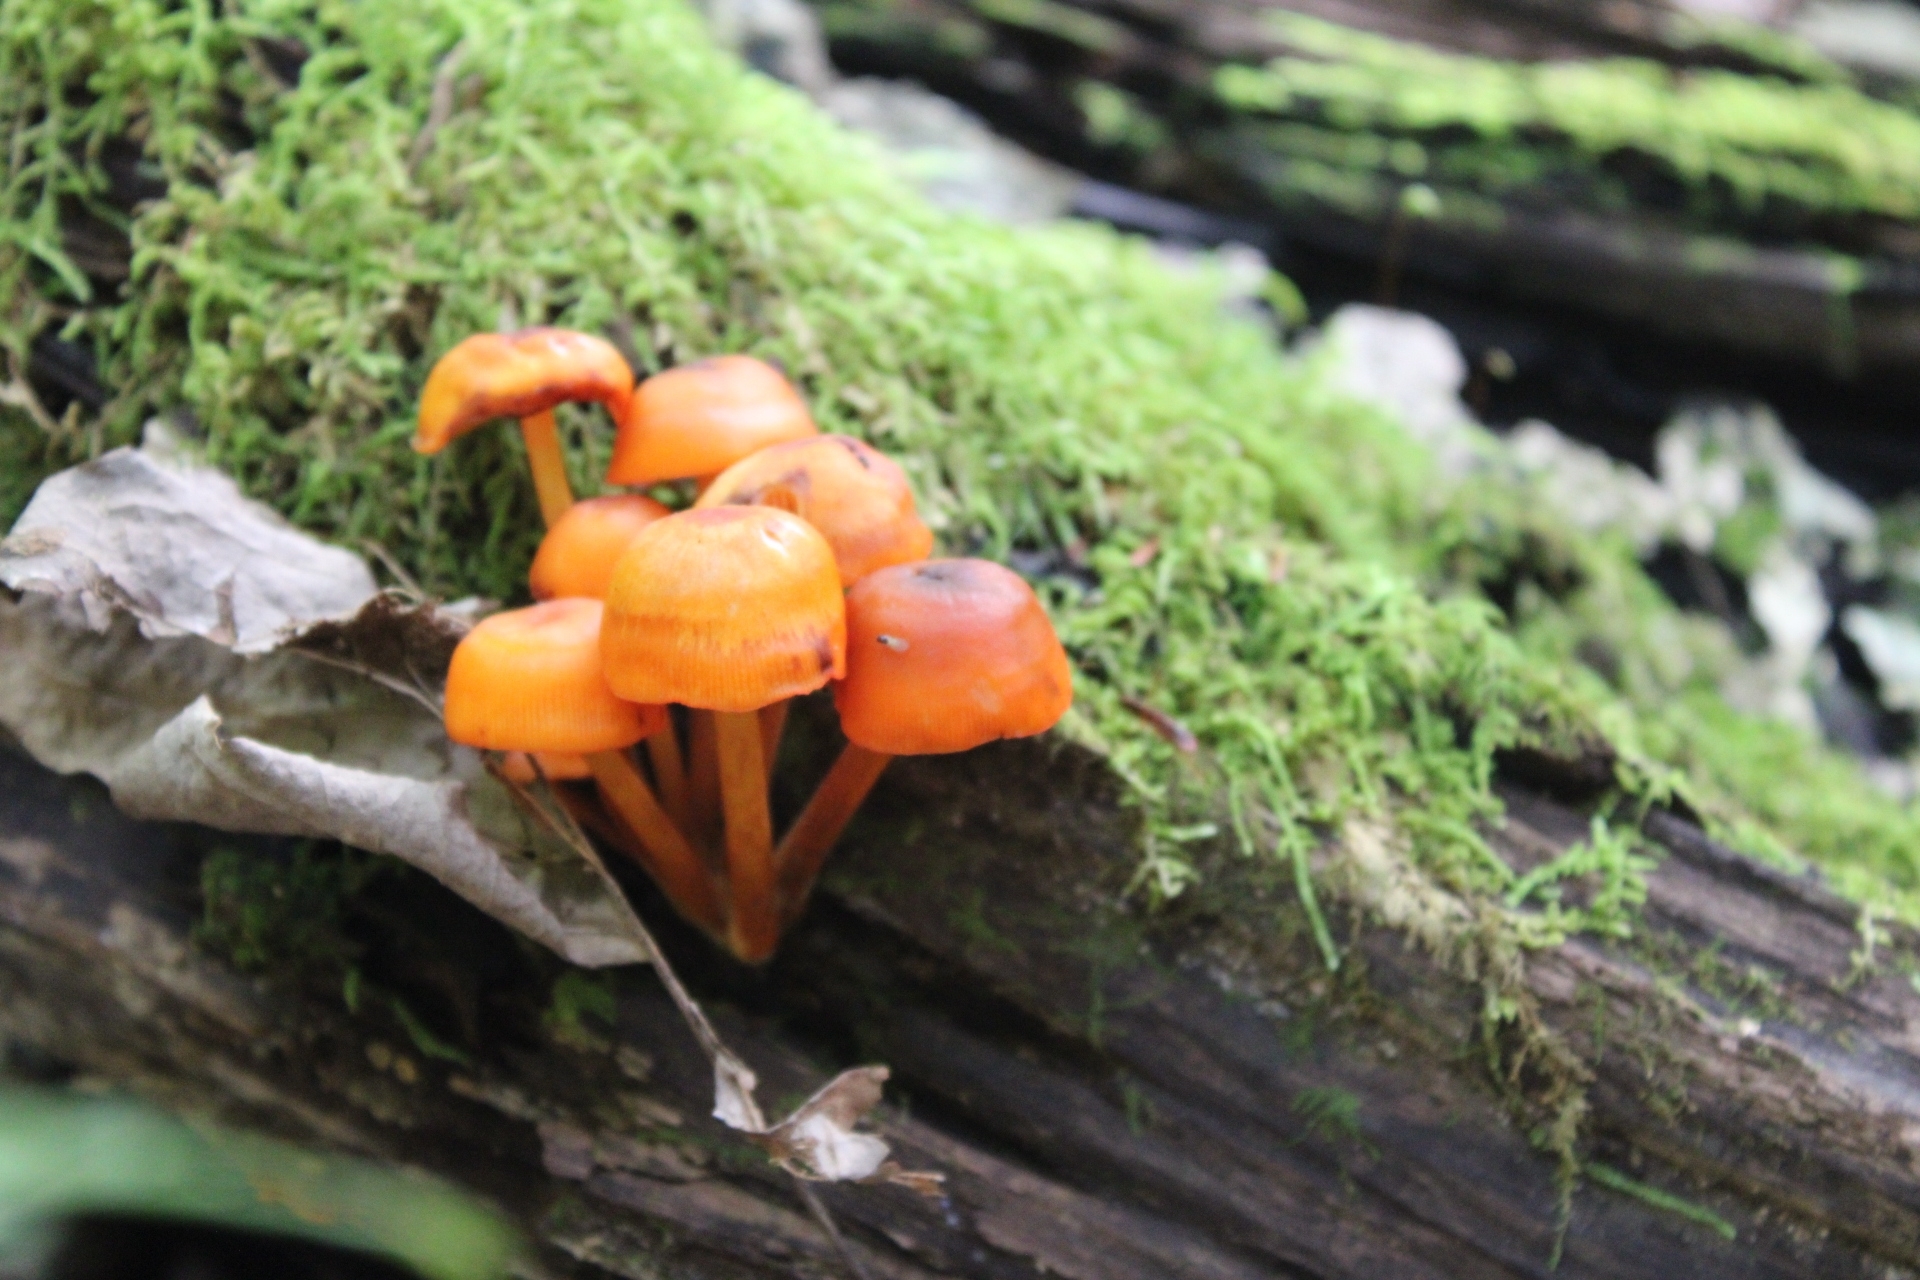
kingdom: Fungi
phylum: Basidiomycota
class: Agaricomycetes
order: Agaricales
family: Mycenaceae
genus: Mycena
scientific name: Mycena leaiana
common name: Orange mycena
